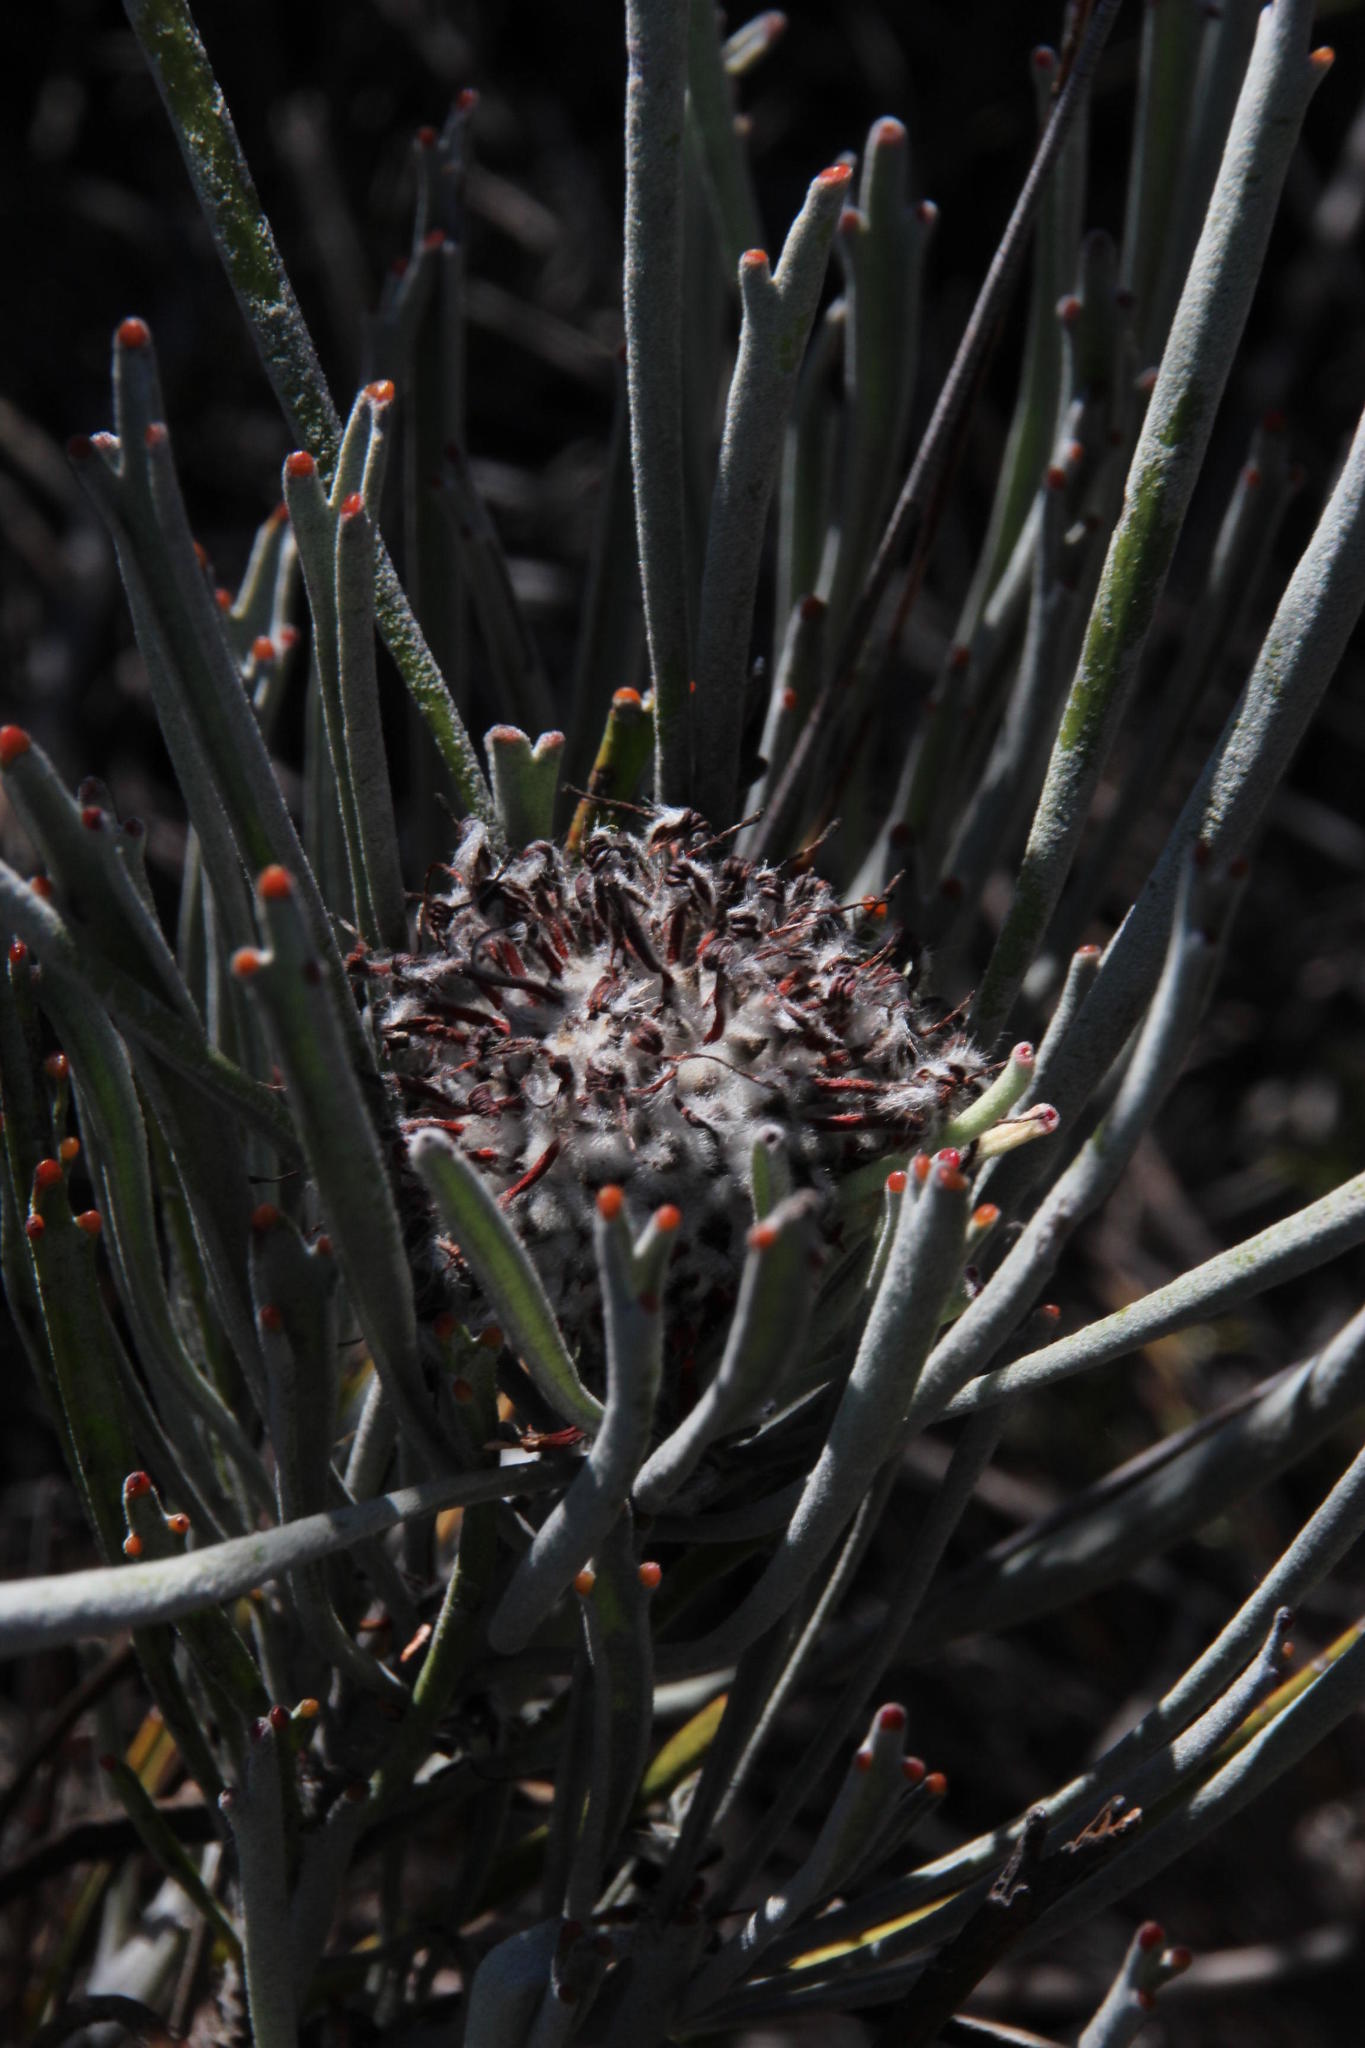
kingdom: Plantae
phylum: Tracheophyta
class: Magnoliopsida
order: Proteales
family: Proteaceae
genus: Leucospermum
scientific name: Leucospermum hypophyllocarpodendron
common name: Snakestem pincushion
